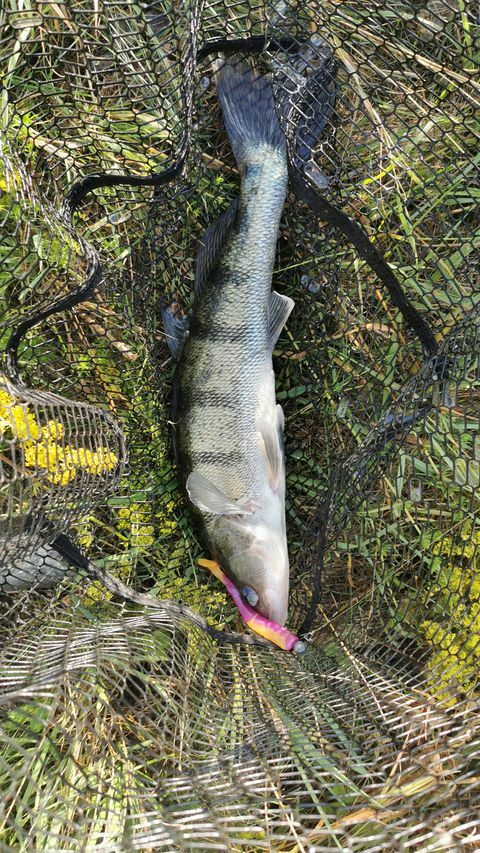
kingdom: Animalia
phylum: Chordata
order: Perciformes
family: Percidae
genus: Sander
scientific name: Sander volgensis
